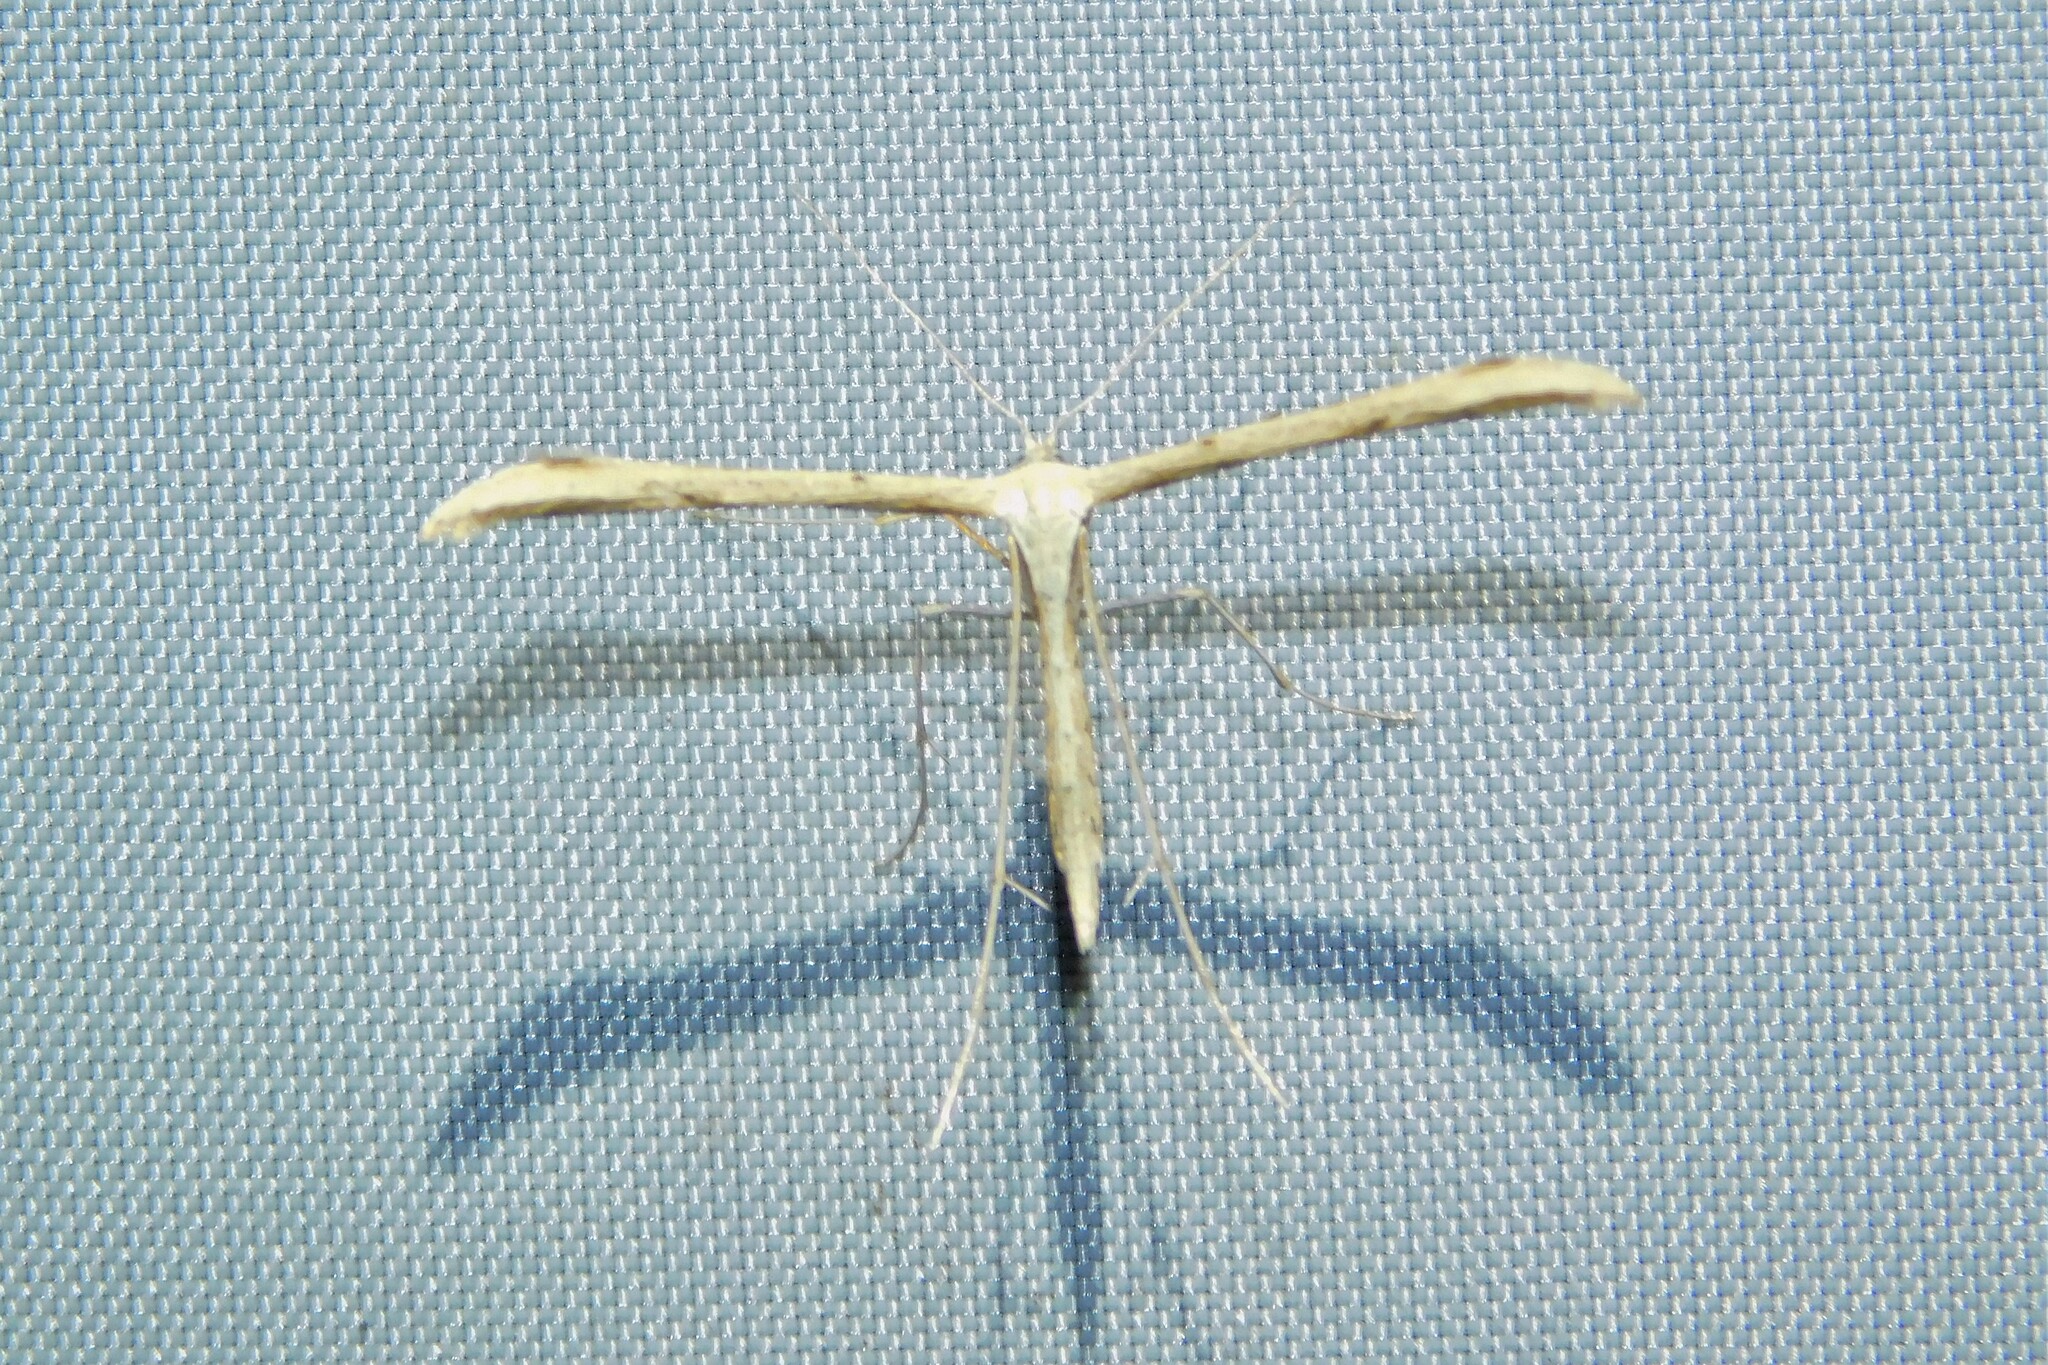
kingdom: Animalia
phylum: Arthropoda
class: Insecta
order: Lepidoptera
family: Pterophoridae
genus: Emmelina
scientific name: Emmelina monodactyla
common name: Common plume
